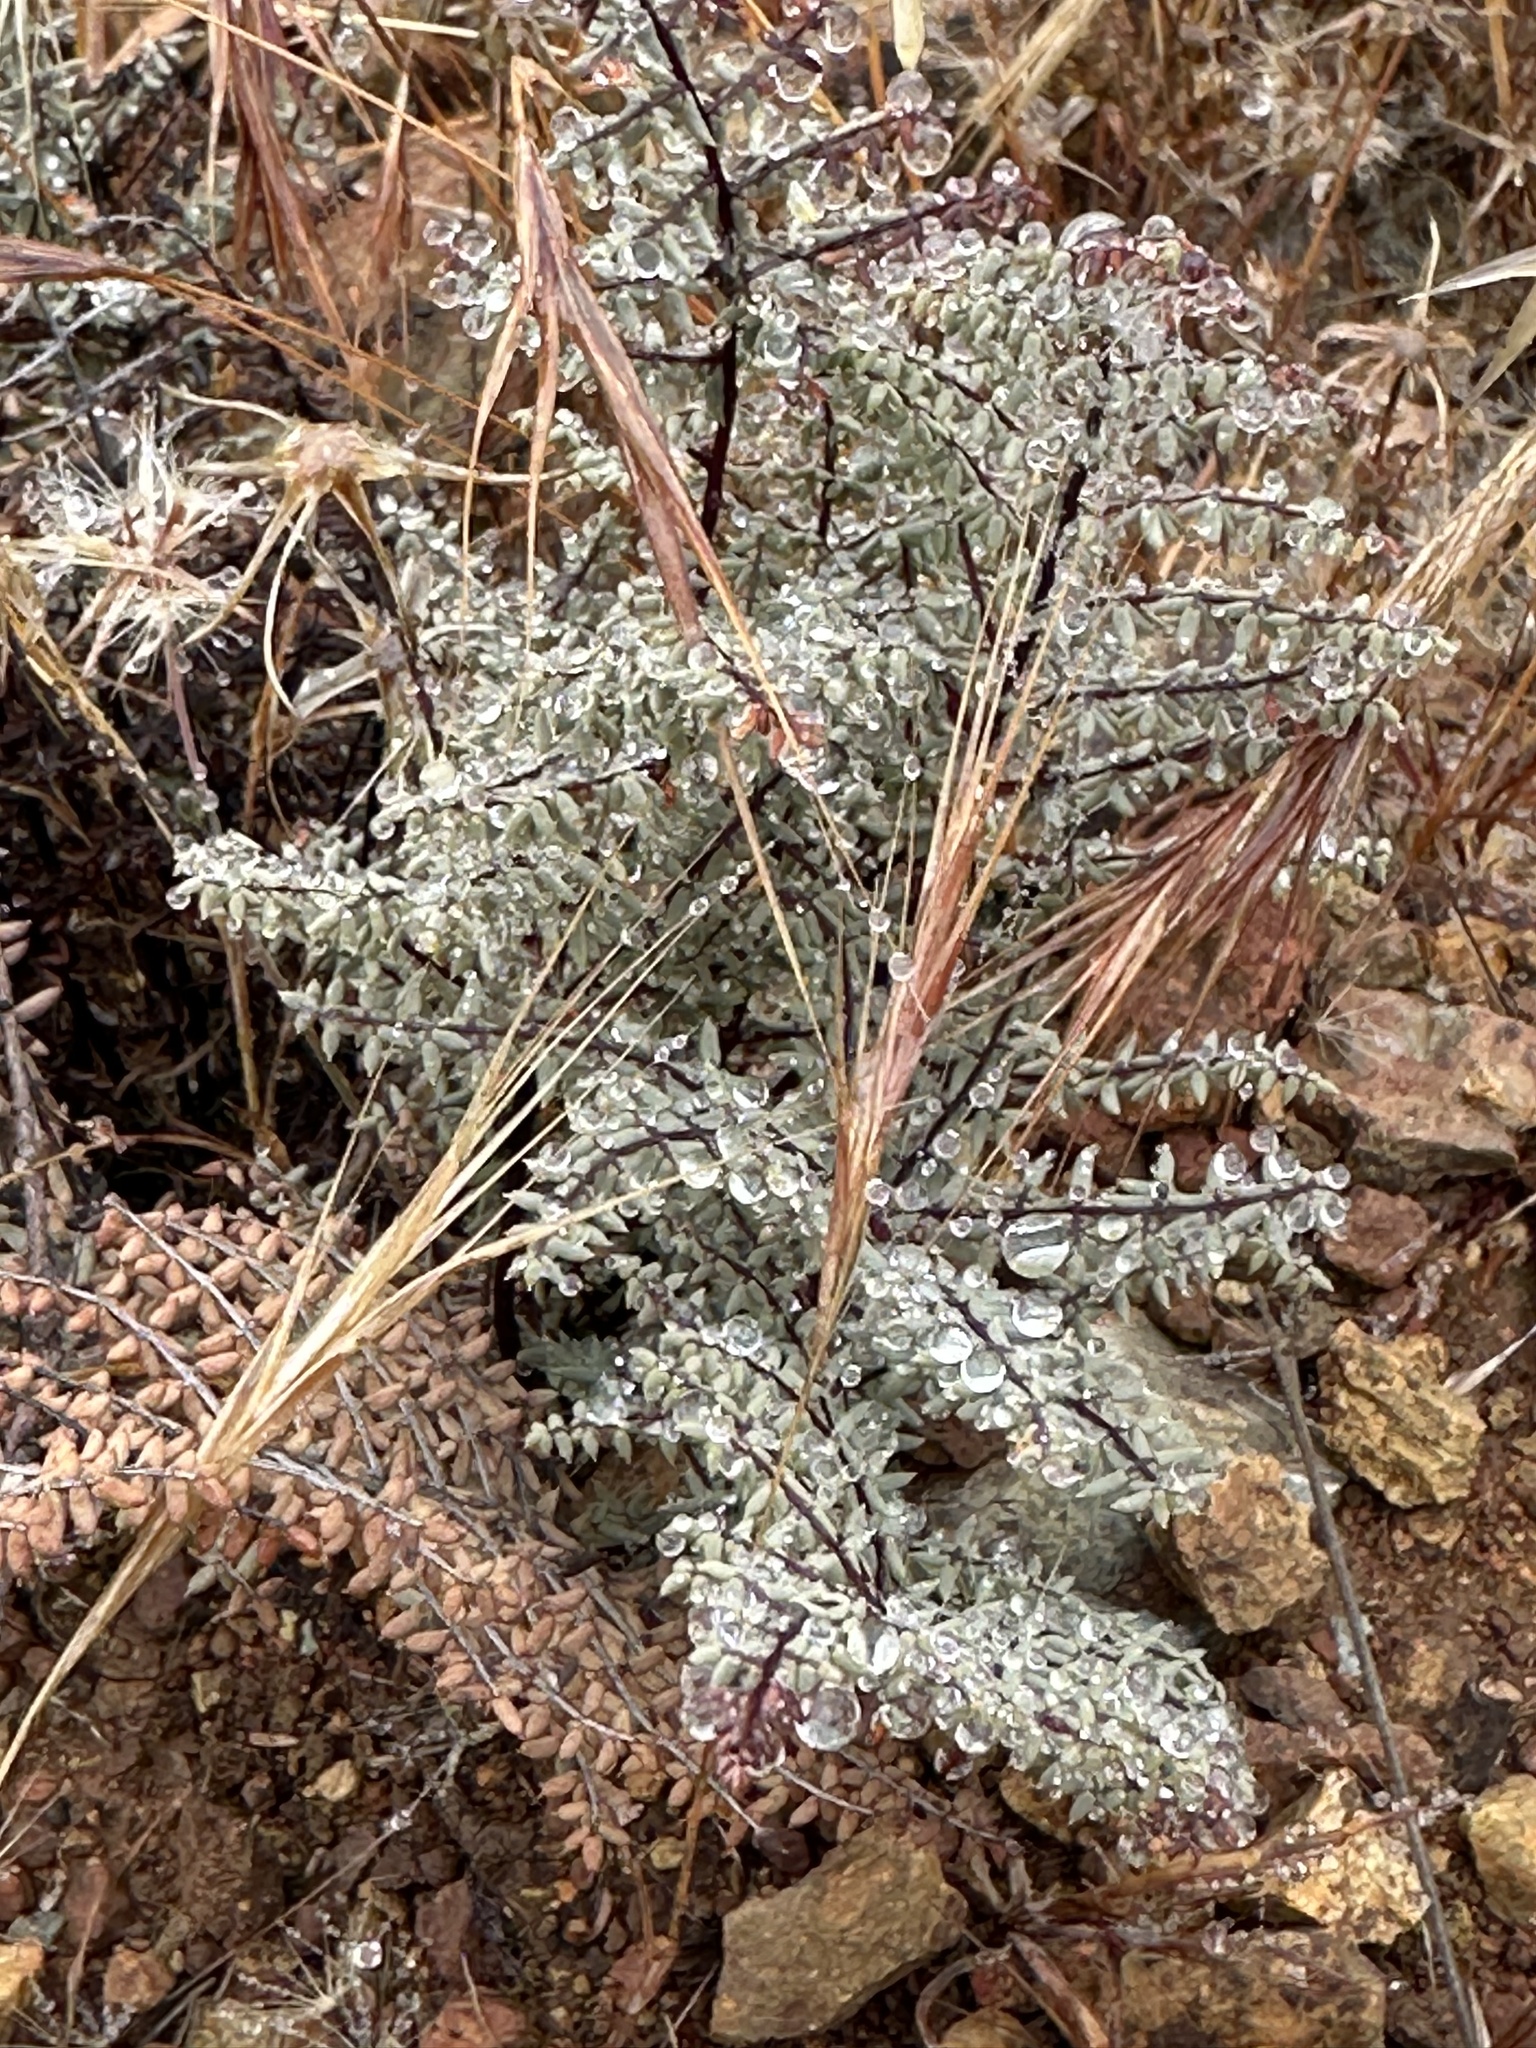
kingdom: Plantae
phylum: Tracheophyta
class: Polypodiopsida
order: Polypodiales
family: Pteridaceae
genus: Pellaea
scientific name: Pellaea mucronata
